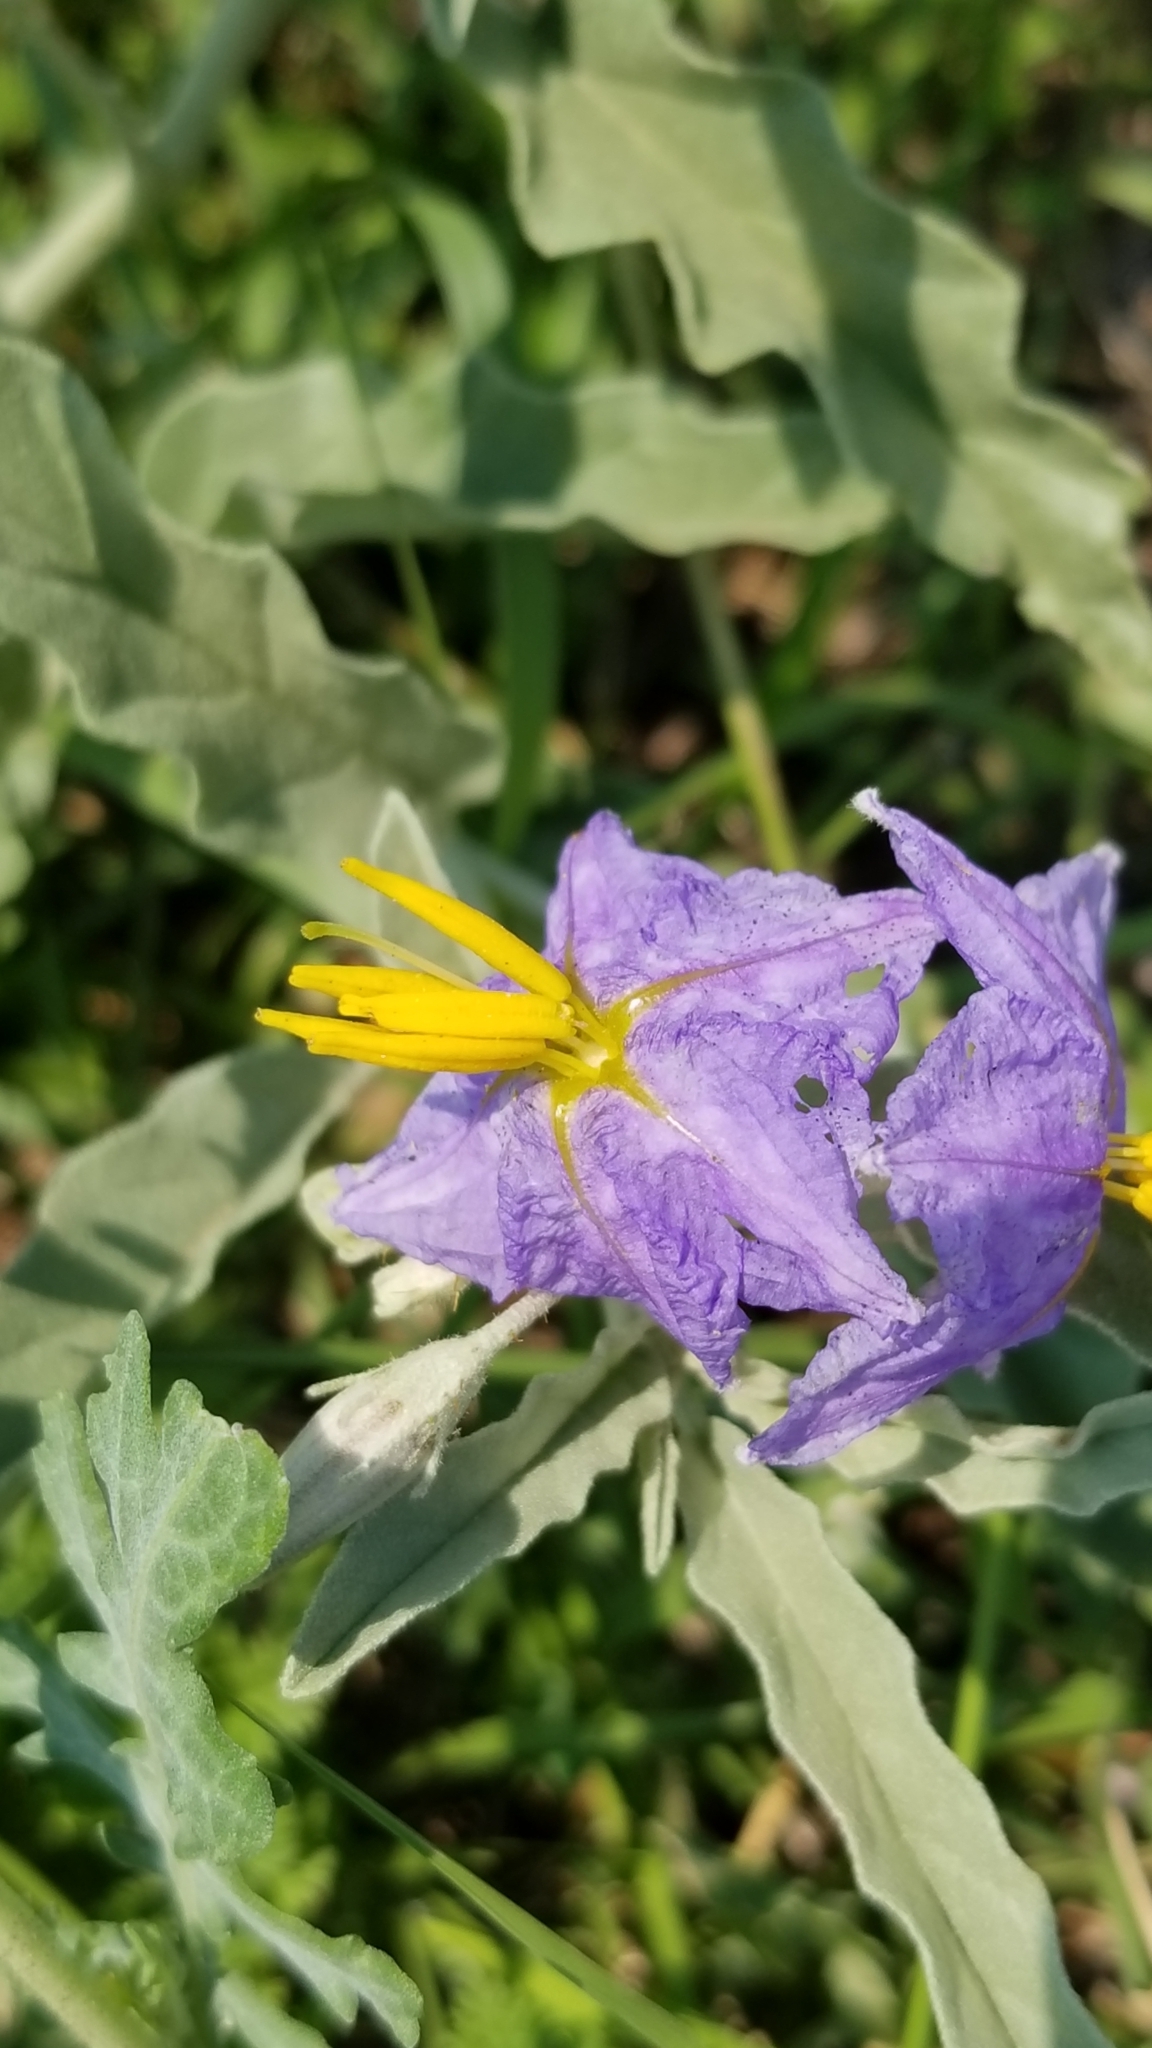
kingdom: Plantae
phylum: Tracheophyta
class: Magnoliopsida
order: Solanales
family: Solanaceae
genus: Solanum
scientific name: Solanum elaeagnifolium
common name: Silverleaf nightshade
